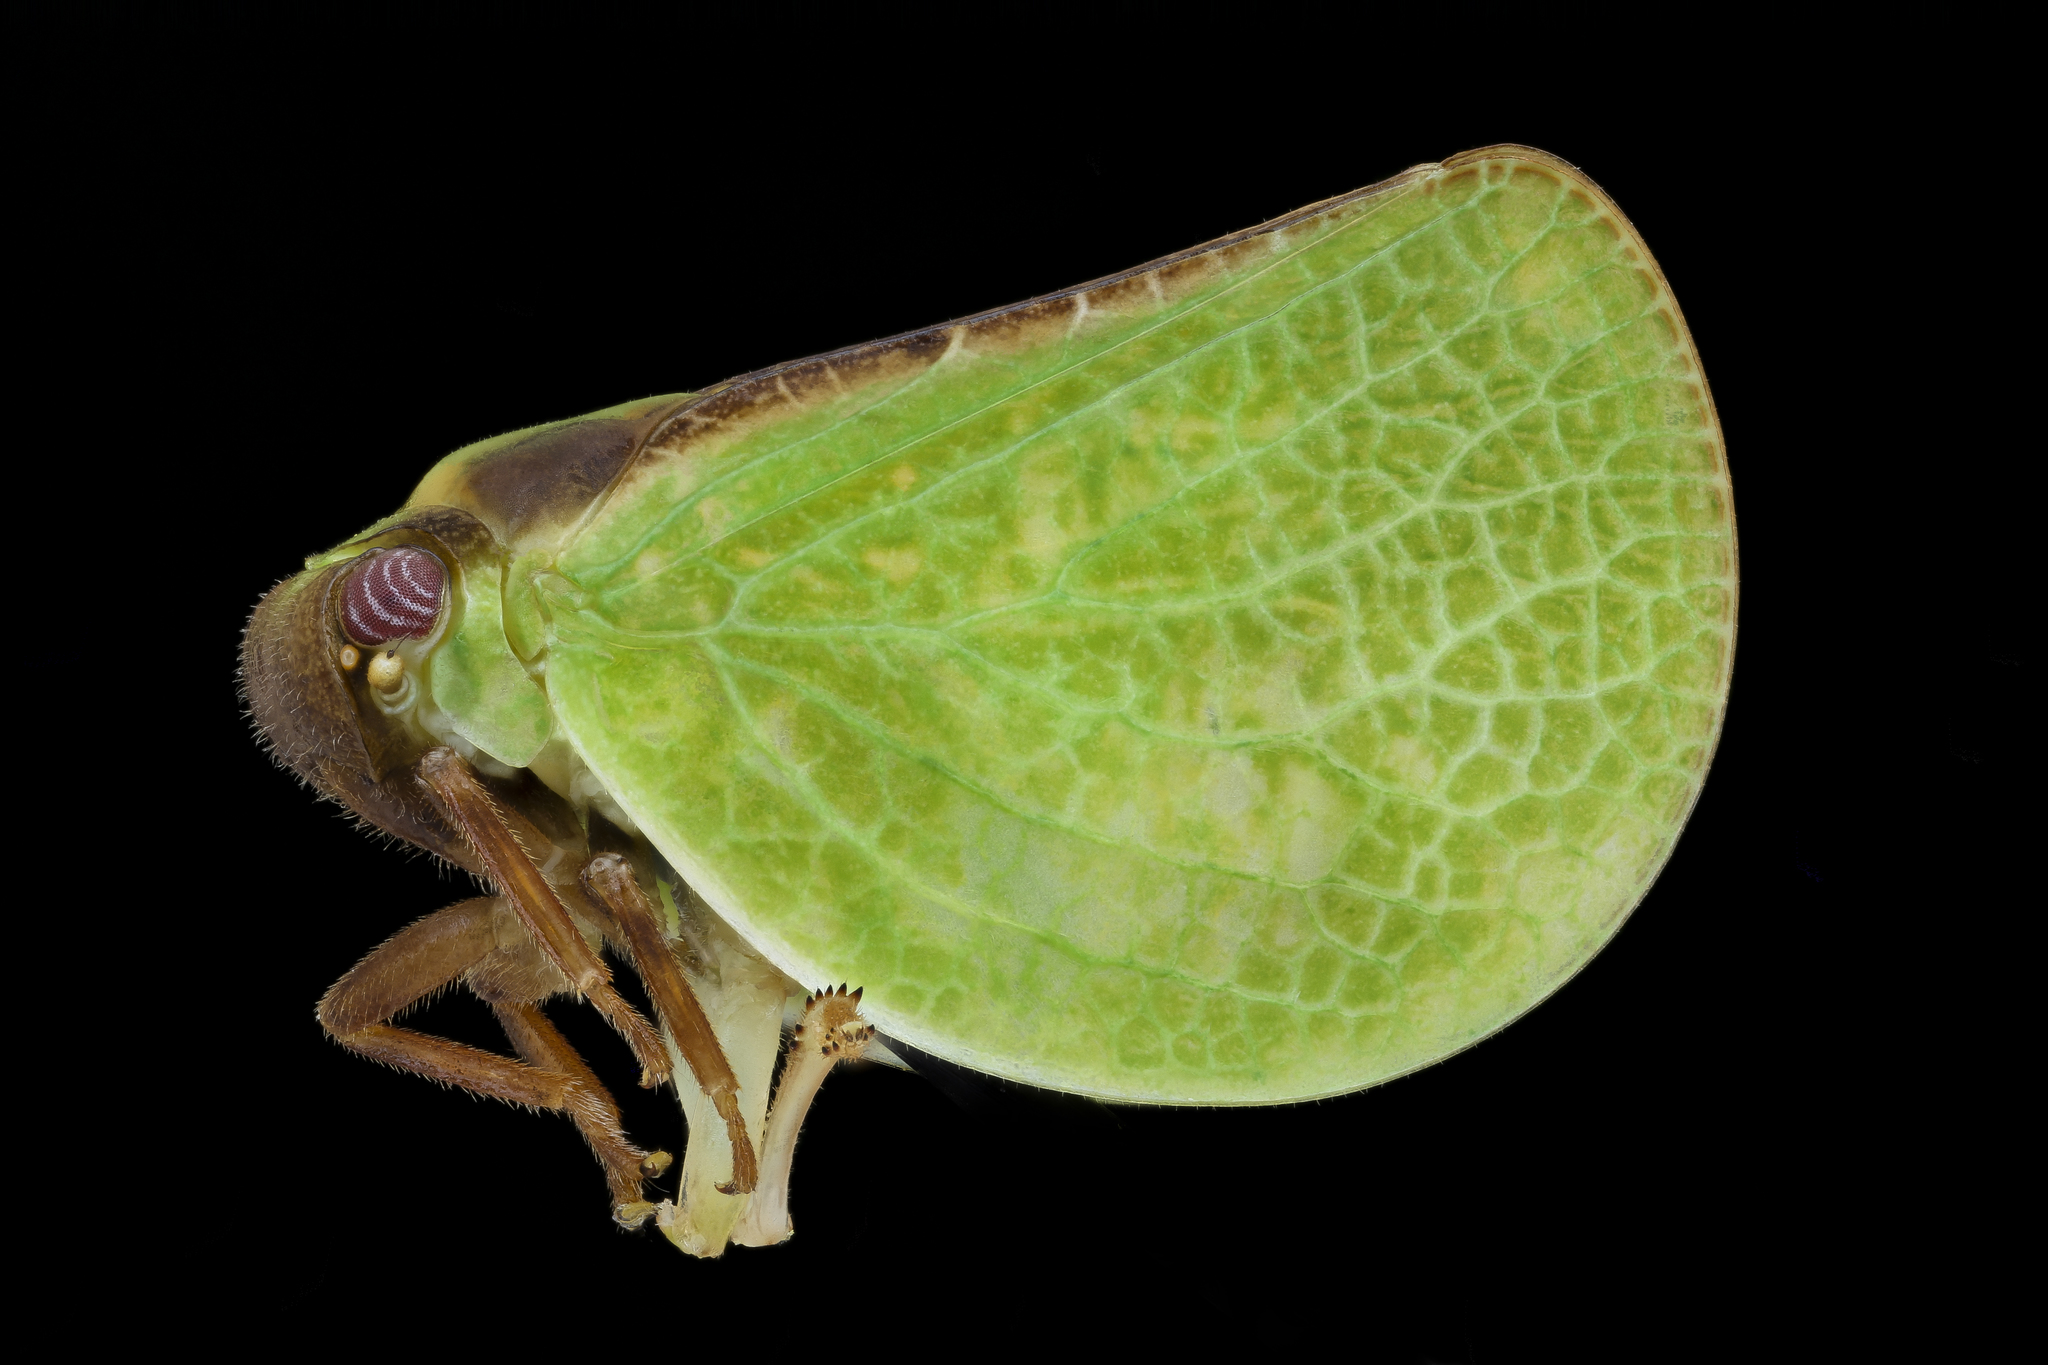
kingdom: Animalia
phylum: Arthropoda
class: Insecta
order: Hemiptera
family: Acanaloniidae
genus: Acanalonia
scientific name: Acanalonia bivittata
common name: Two-striped planthopper
